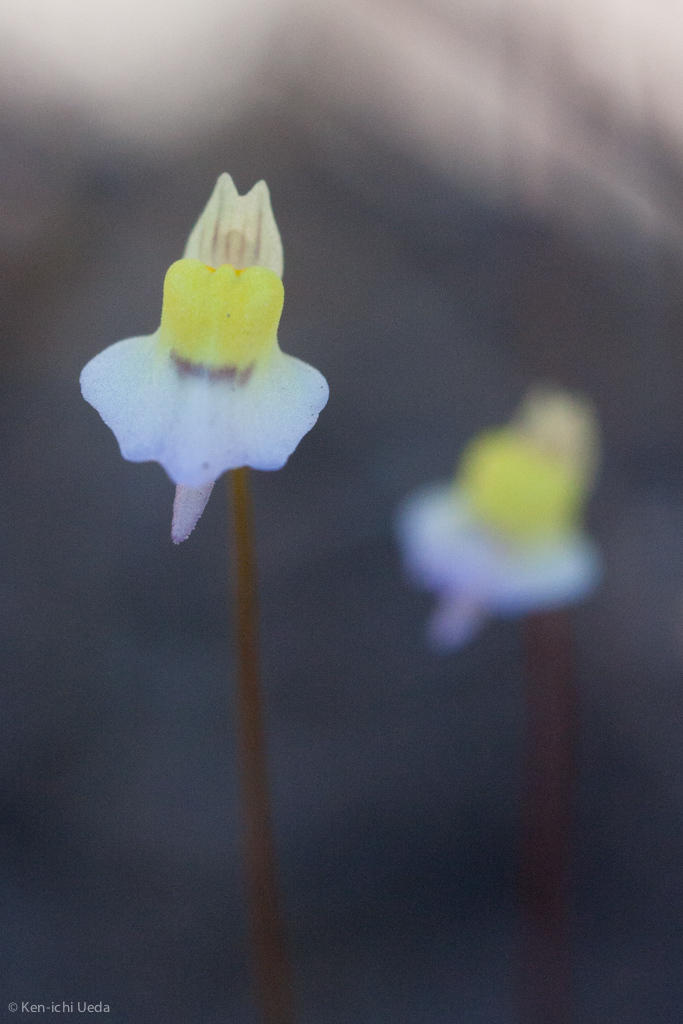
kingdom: Plantae
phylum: Tracheophyta
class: Magnoliopsida
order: Lamiales
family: Lentibulariaceae
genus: Utricularia
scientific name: Utricularia bisquamata
